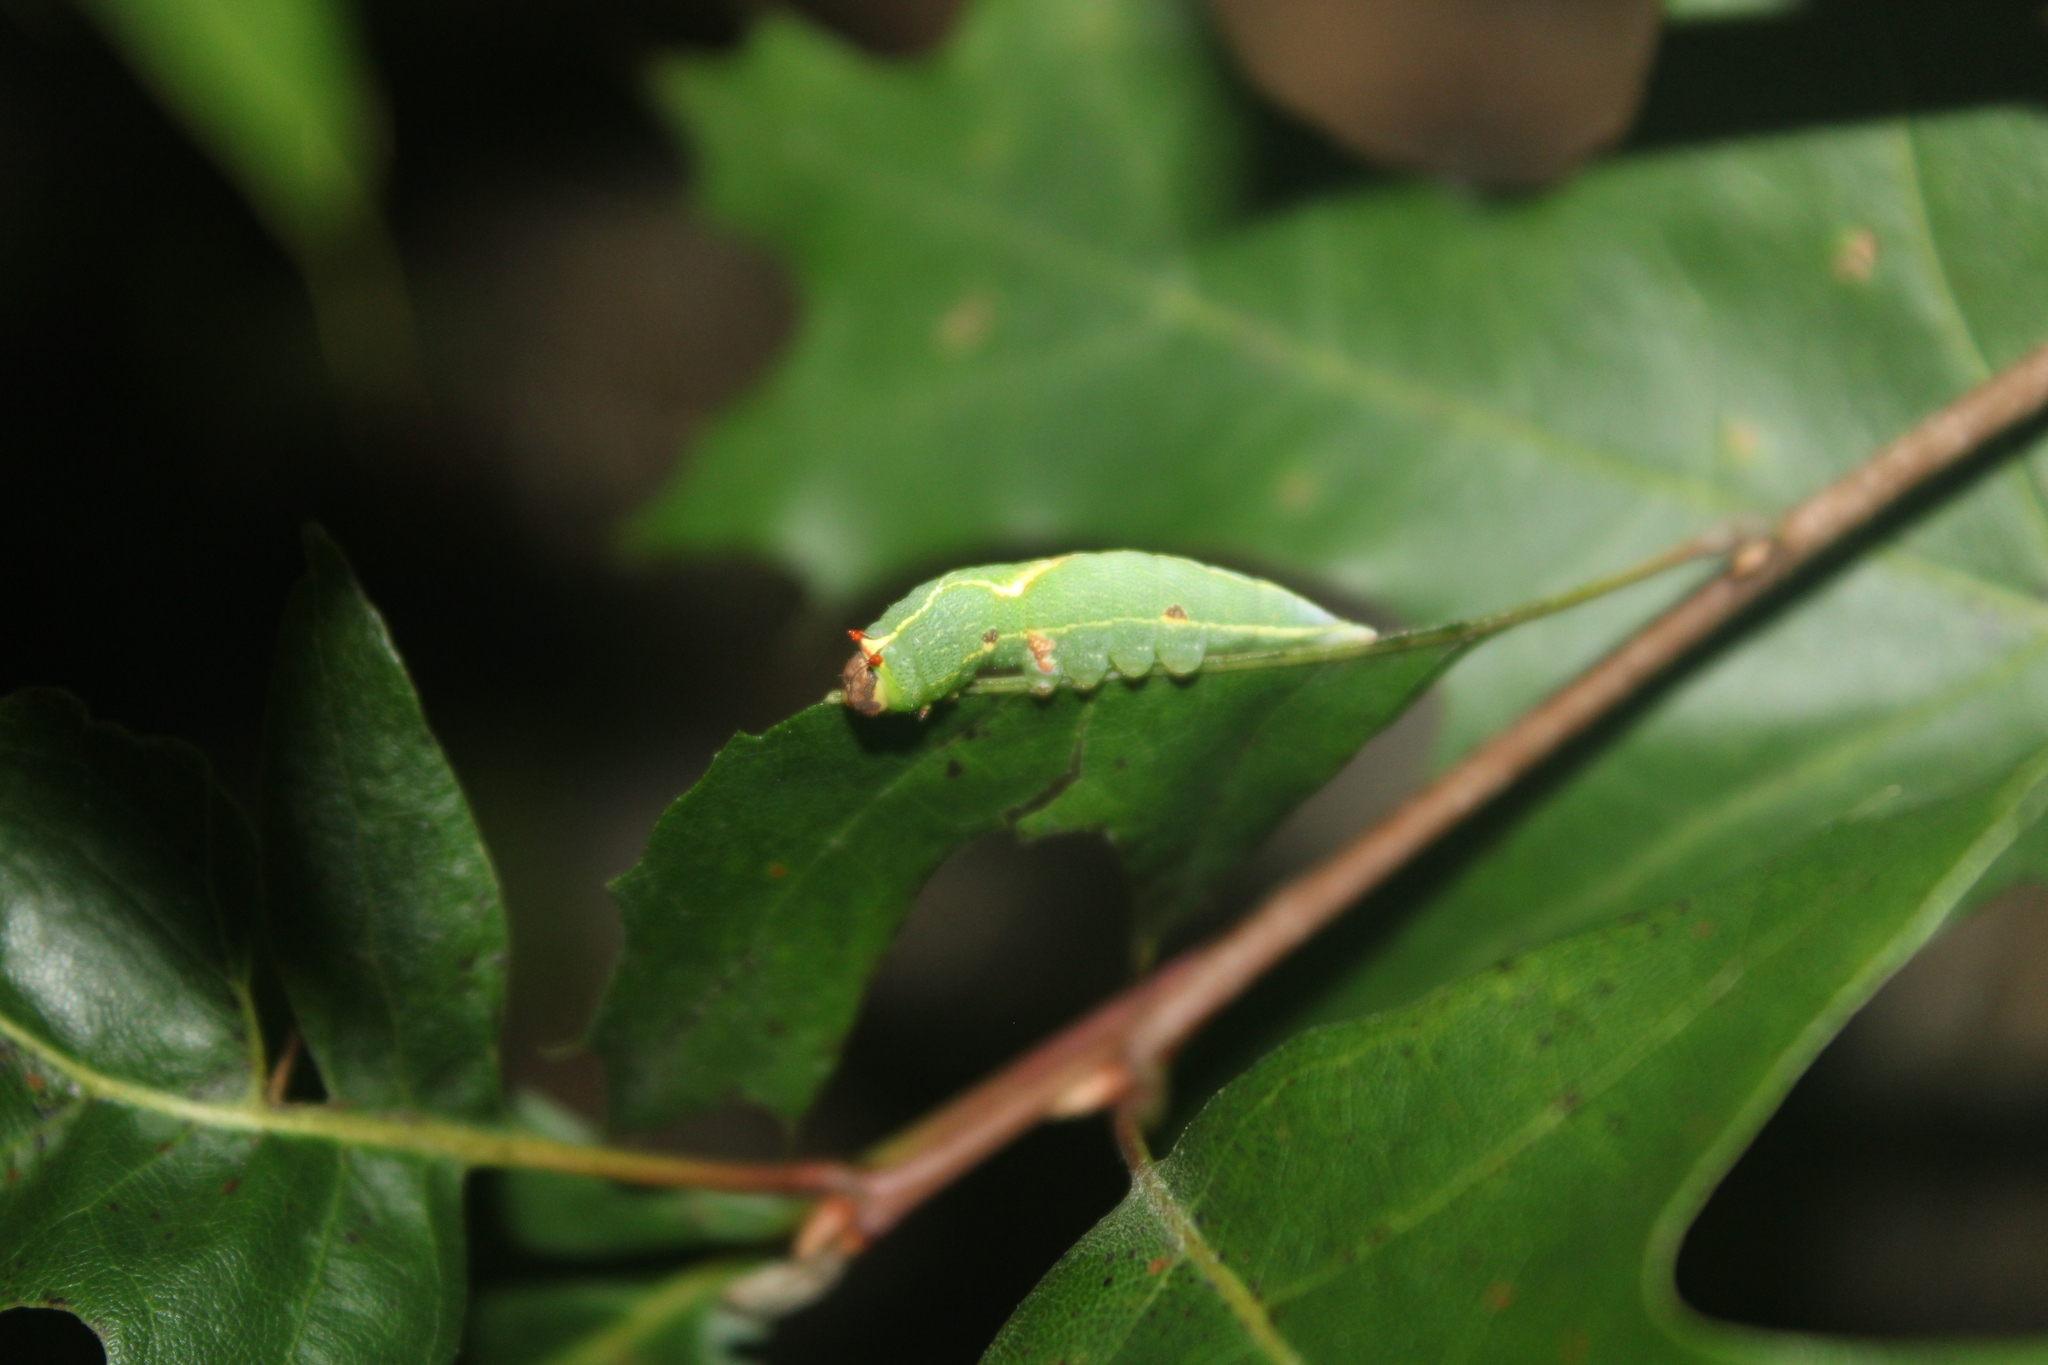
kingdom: Animalia
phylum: Arthropoda
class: Insecta
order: Lepidoptera
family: Notodontidae
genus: Heterocampa
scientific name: Heterocampa obliqua
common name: Oblique heterocampa
